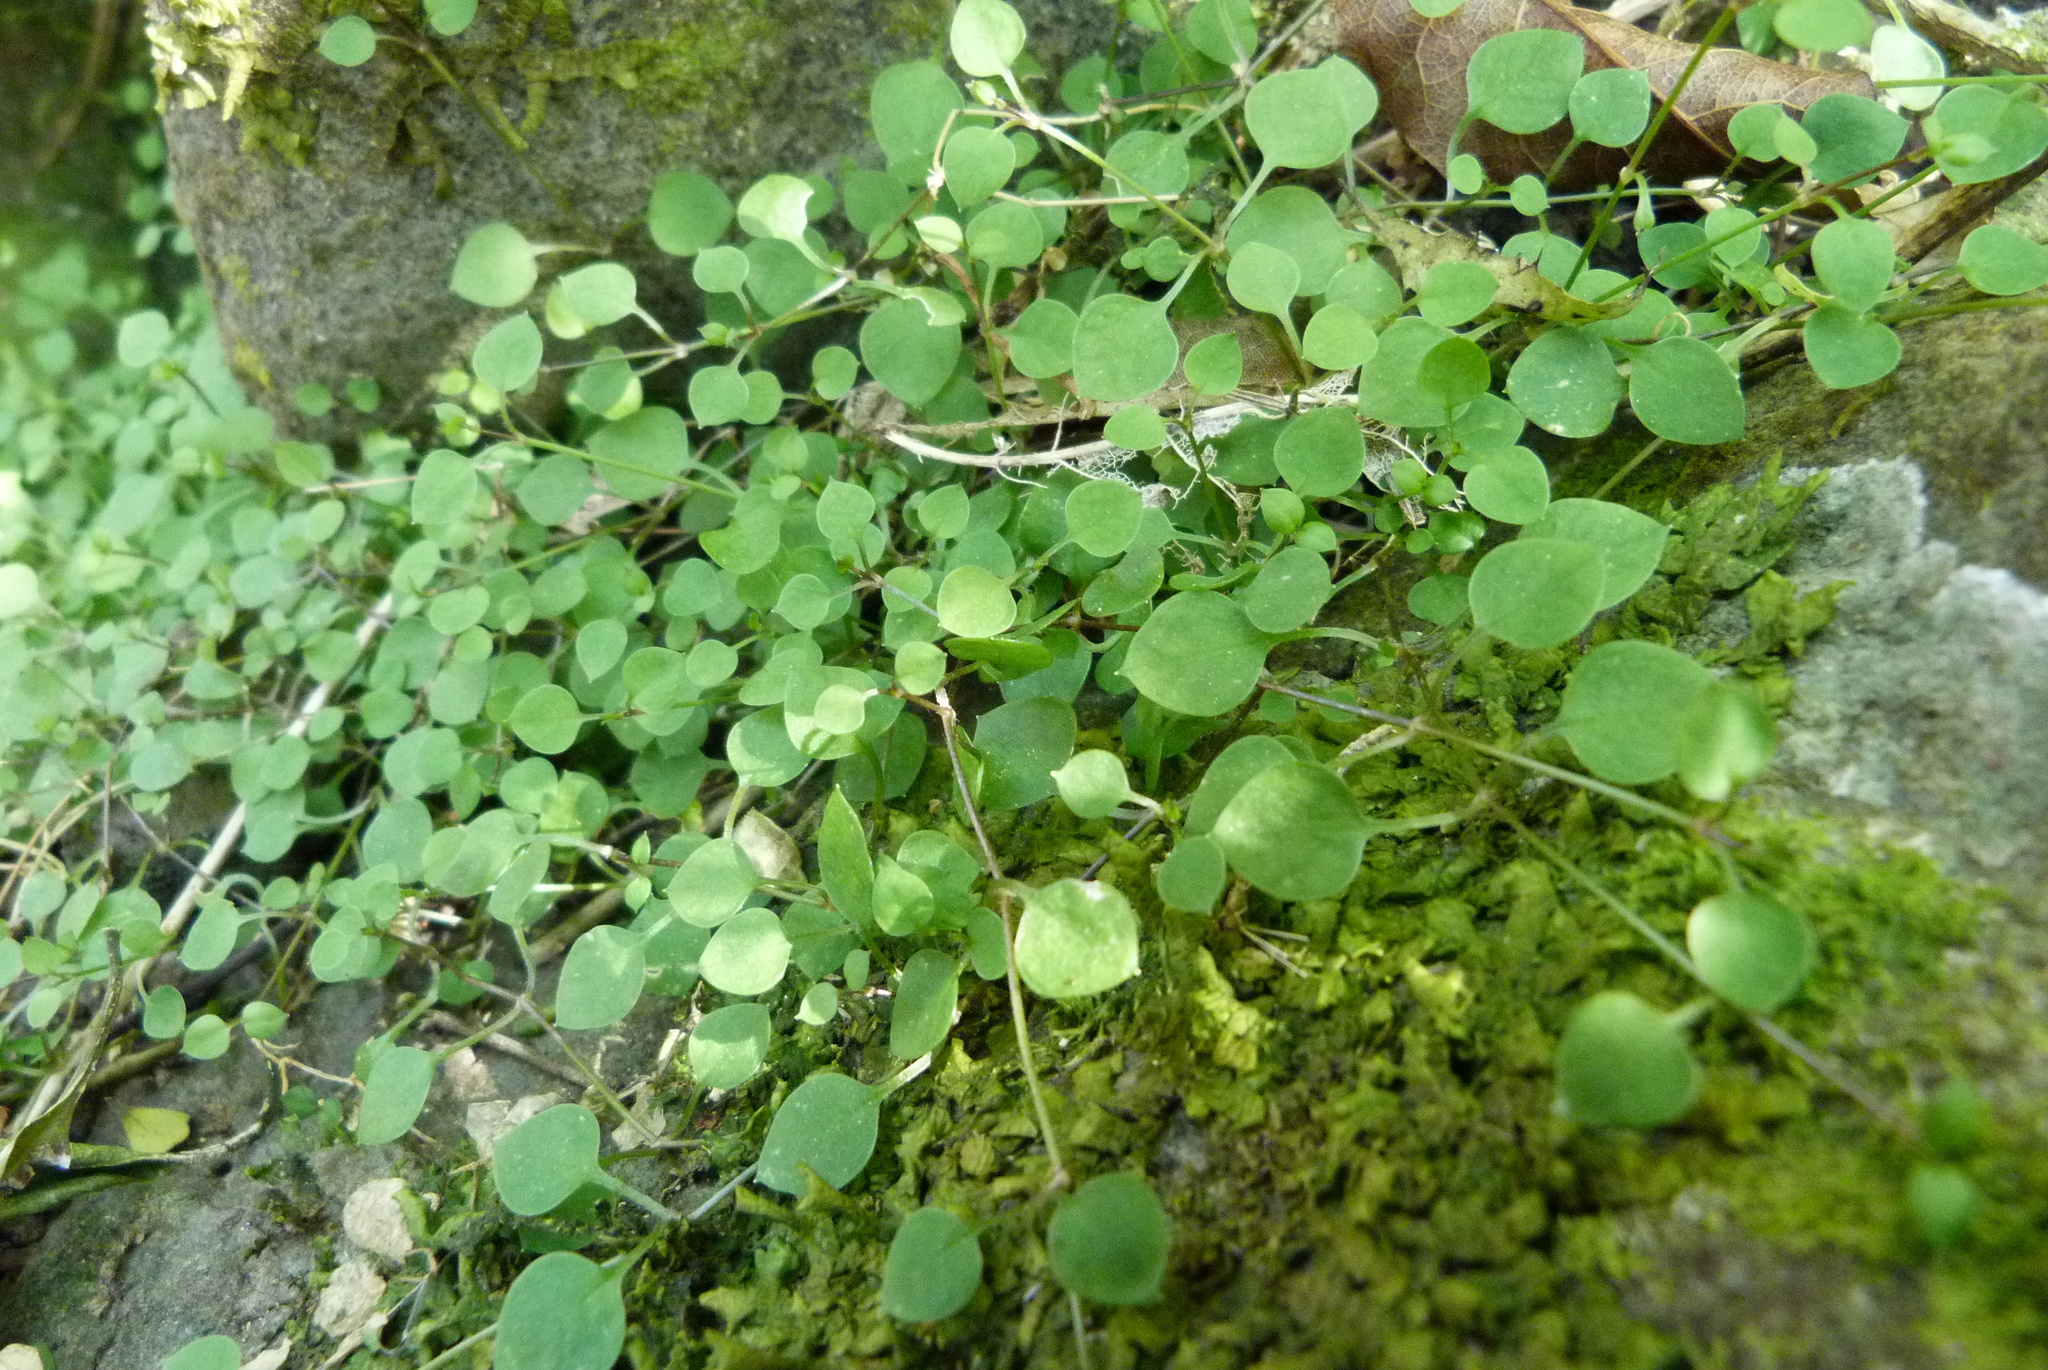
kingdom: Plantae
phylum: Tracheophyta
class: Magnoliopsida
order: Caryophyllales
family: Caryophyllaceae
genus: Stellaria
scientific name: Stellaria parviflora
